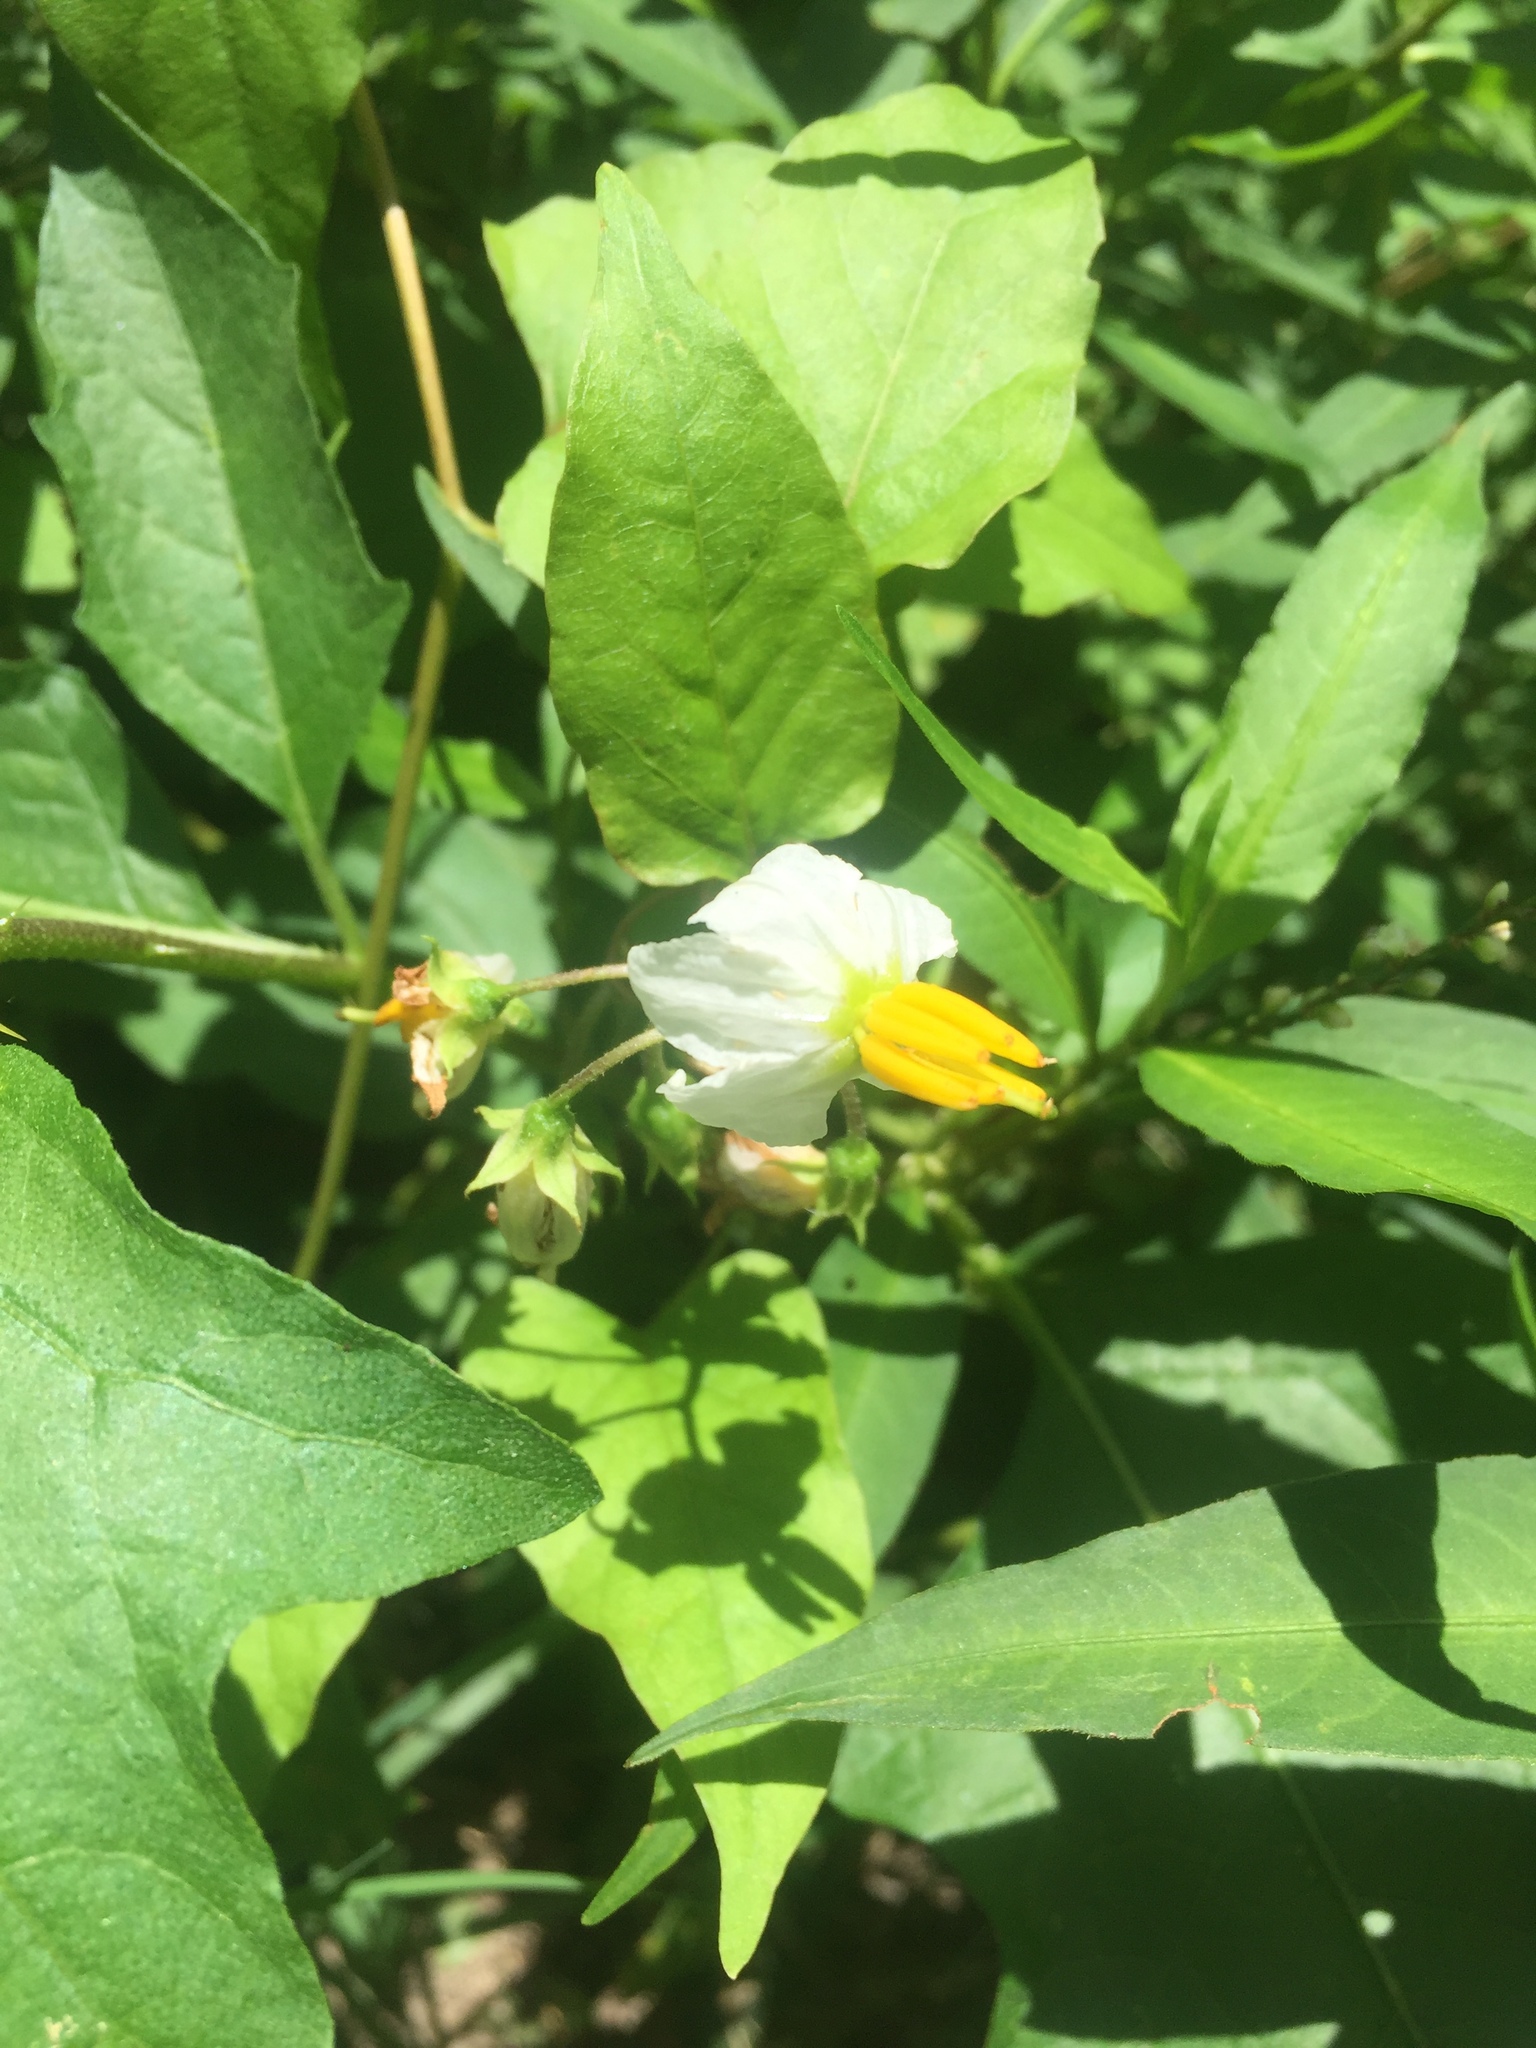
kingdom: Plantae
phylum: Tracheophyta
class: Magnoliopsida
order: Solanales
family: Solanaceae
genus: Solanum
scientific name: Solanum carolinense
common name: Horse-nettle
